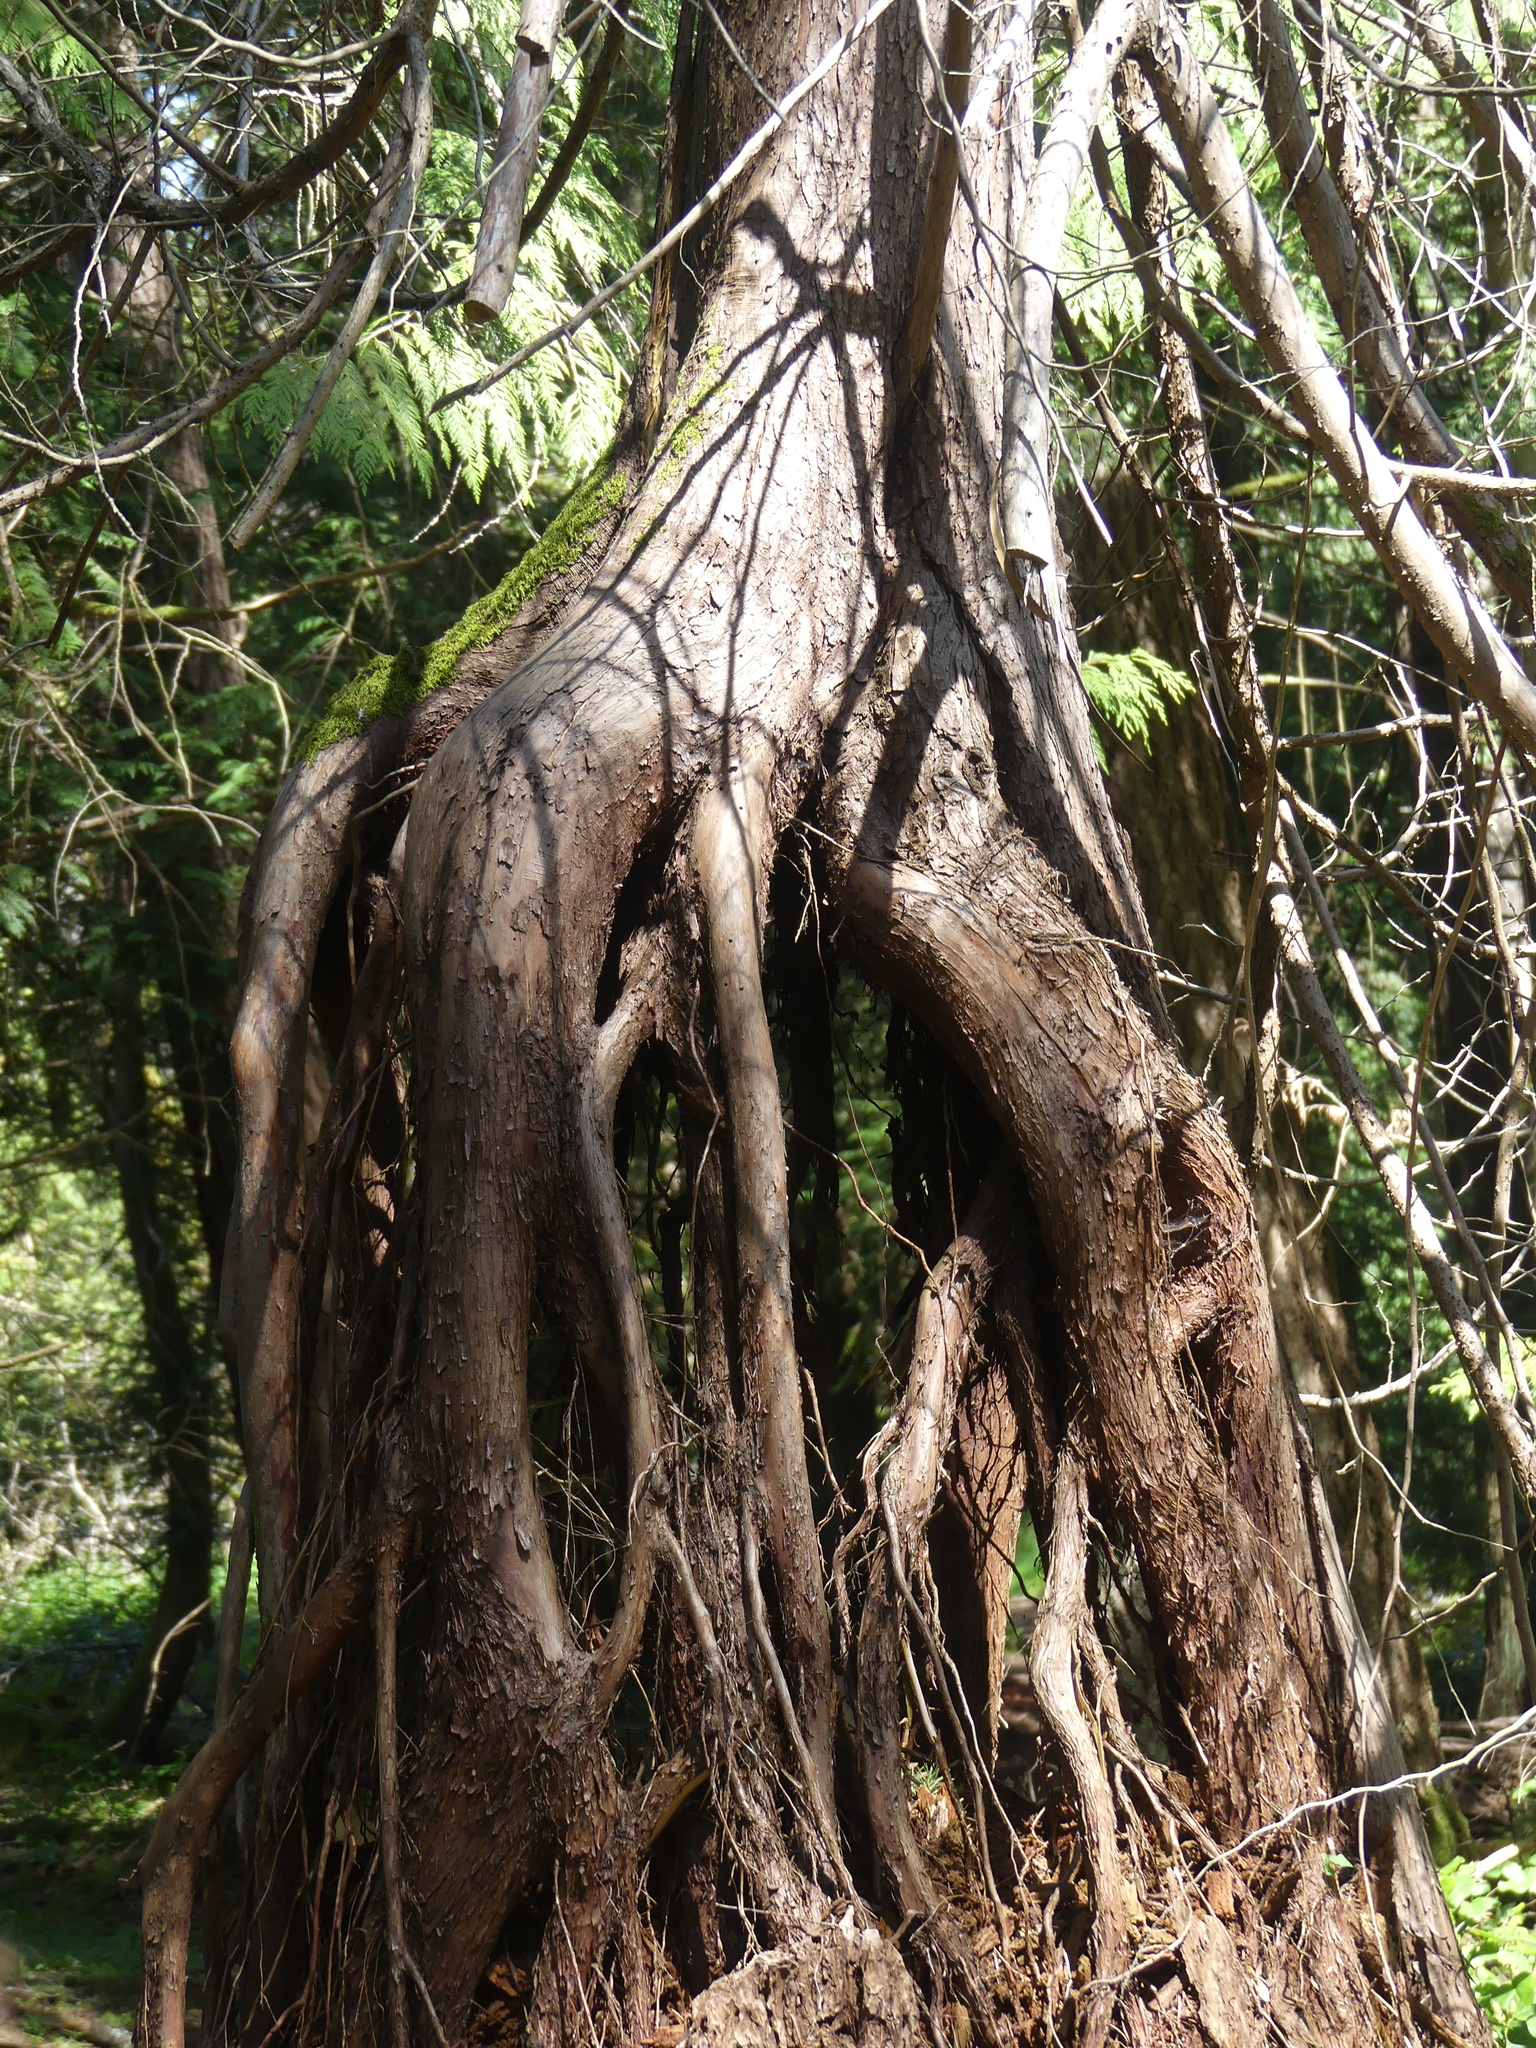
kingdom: Plantae
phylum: Tracheophyta
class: Pinopsida
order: Pinales
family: Cupressaceae
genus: Thuja
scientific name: Thuja plicata
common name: Western red-cedar
